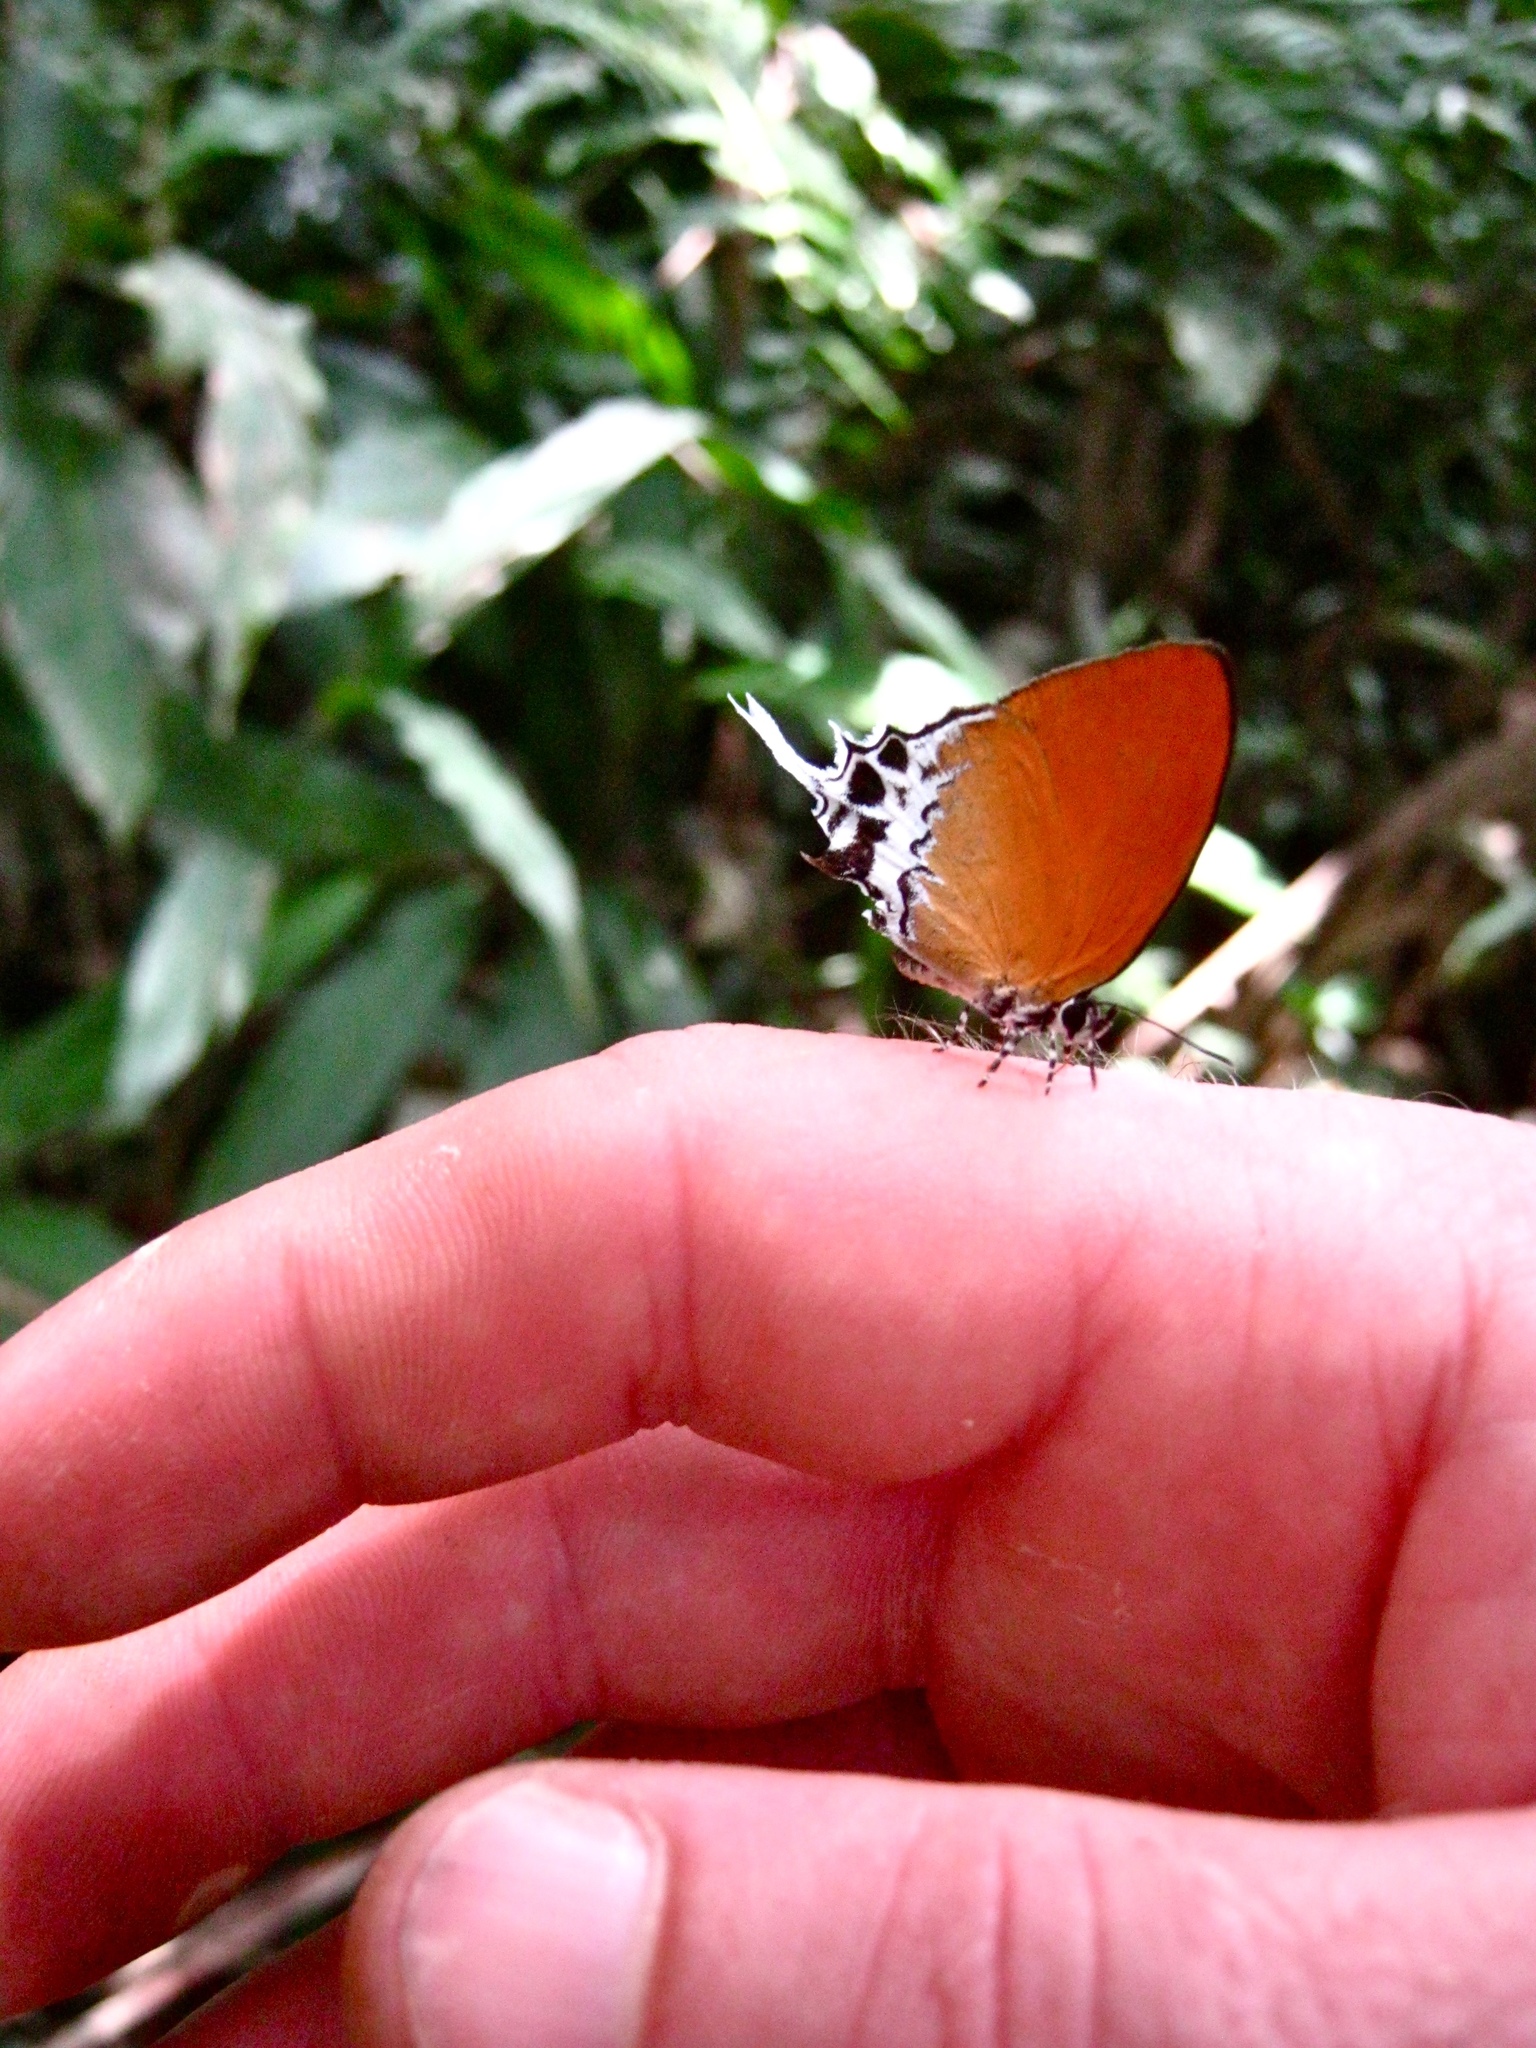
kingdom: Animalia
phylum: Arthropoda
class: Insecta
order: Lepidoptera
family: Lycaenidae
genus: Eooxylides
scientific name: Eooxylides tharis
